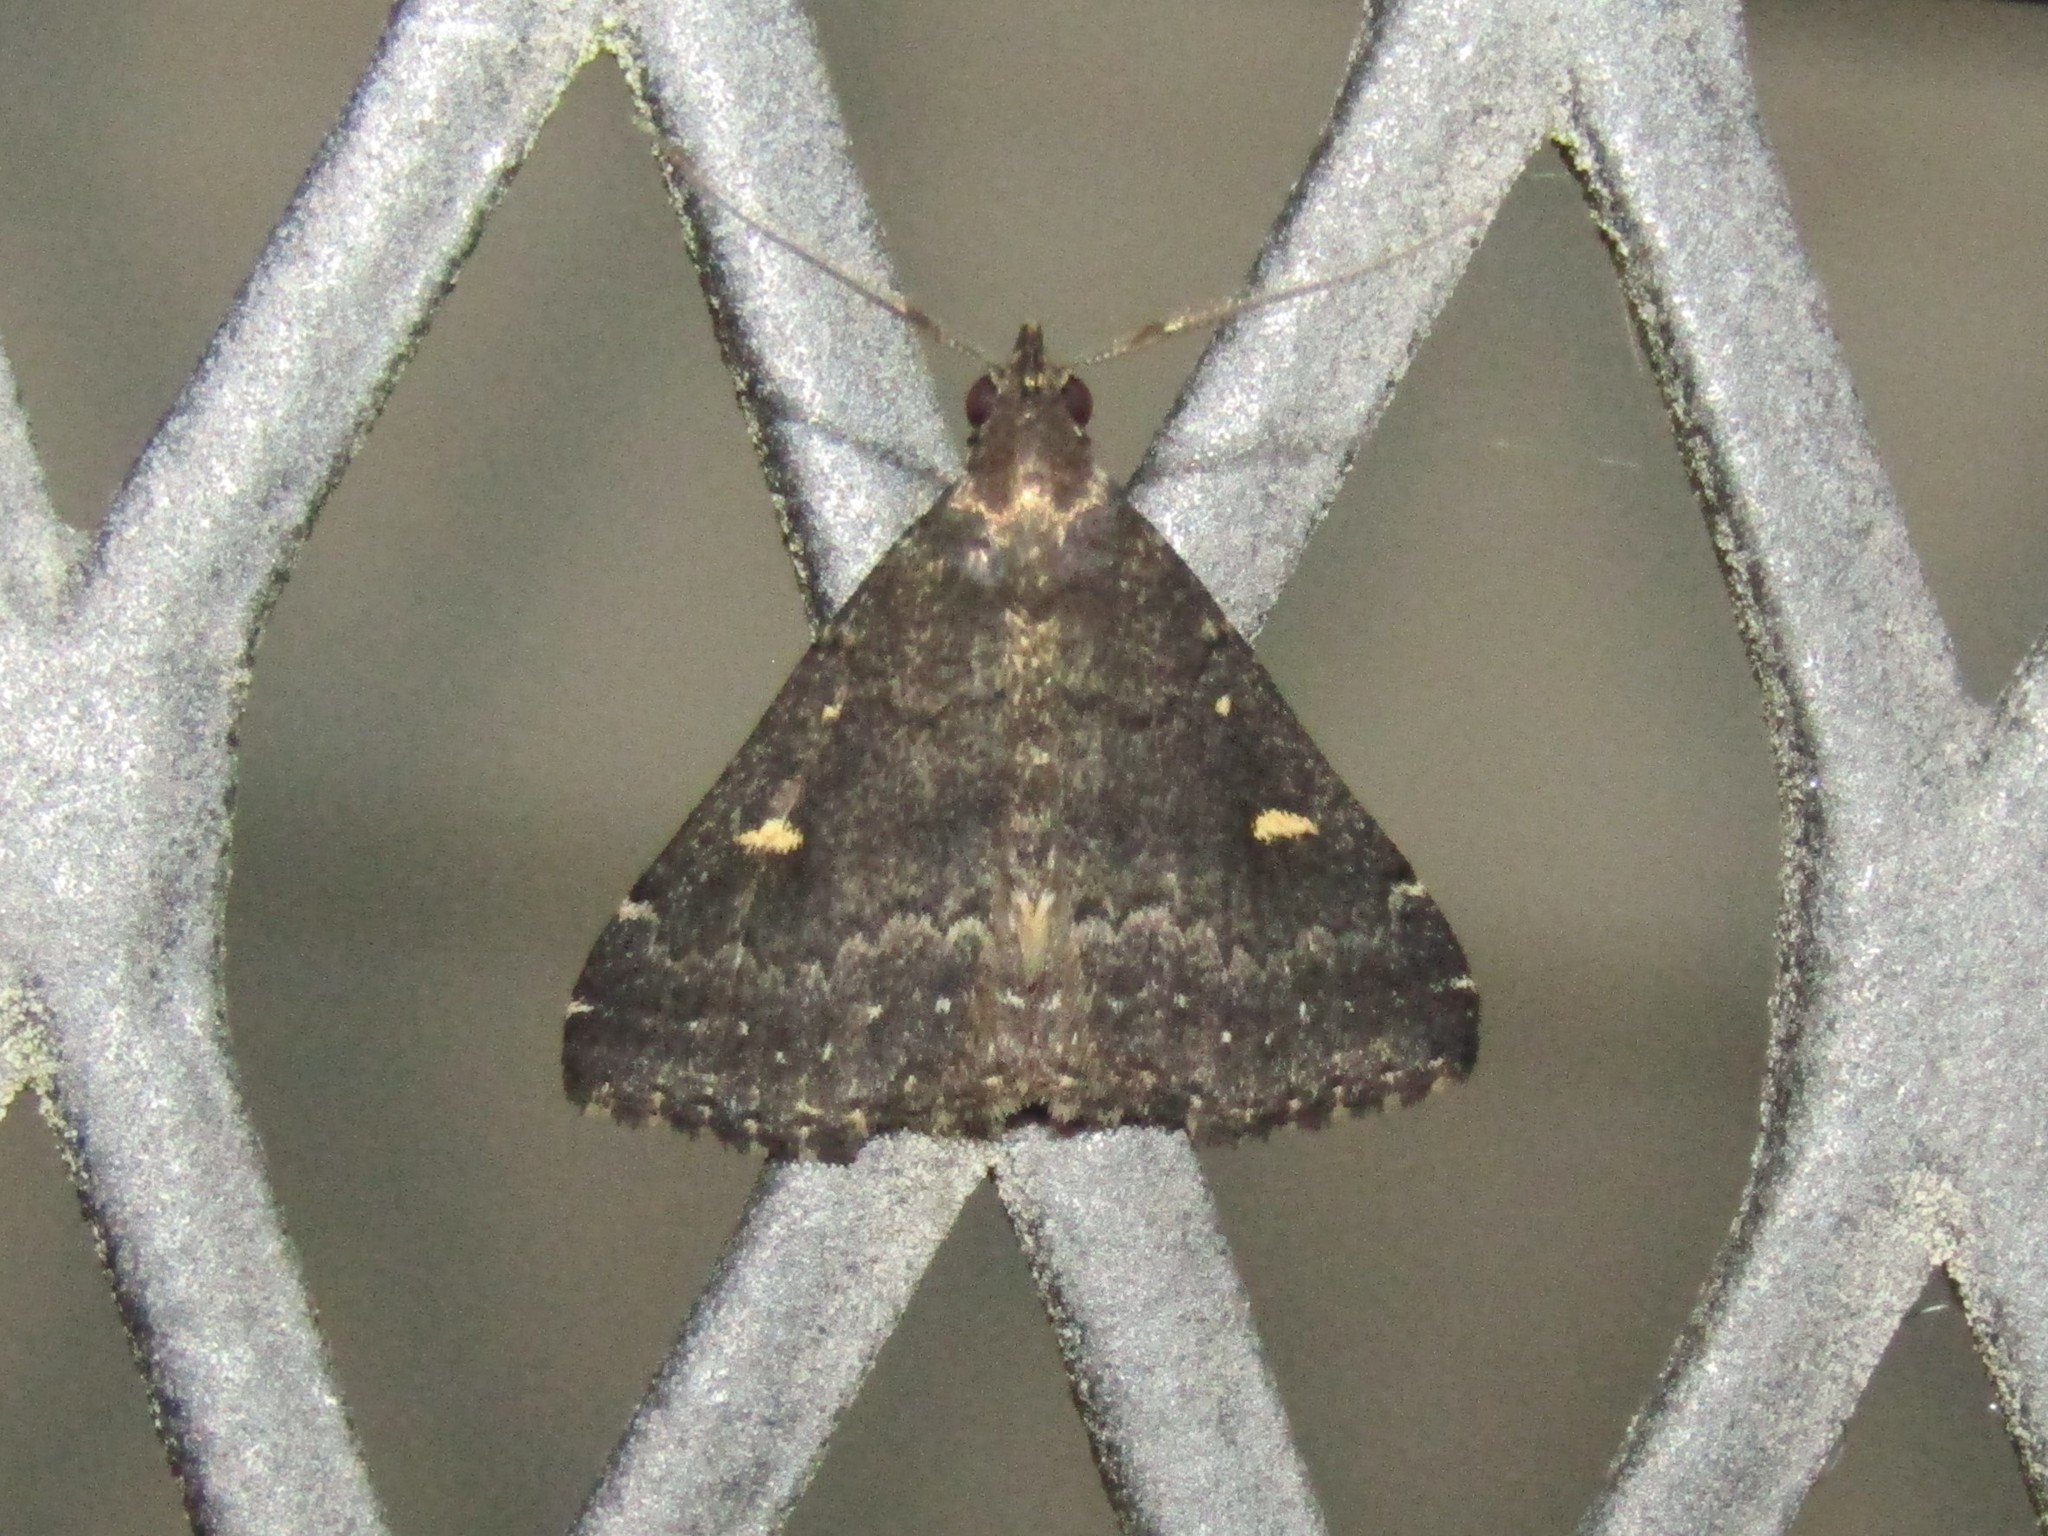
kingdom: Animalia
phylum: Arthropoda
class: Insecta
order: Lepidoptera
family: Erebidae
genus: Tetanolita
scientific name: Tetanolita mynesalis
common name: Smoky tetanolita moth
